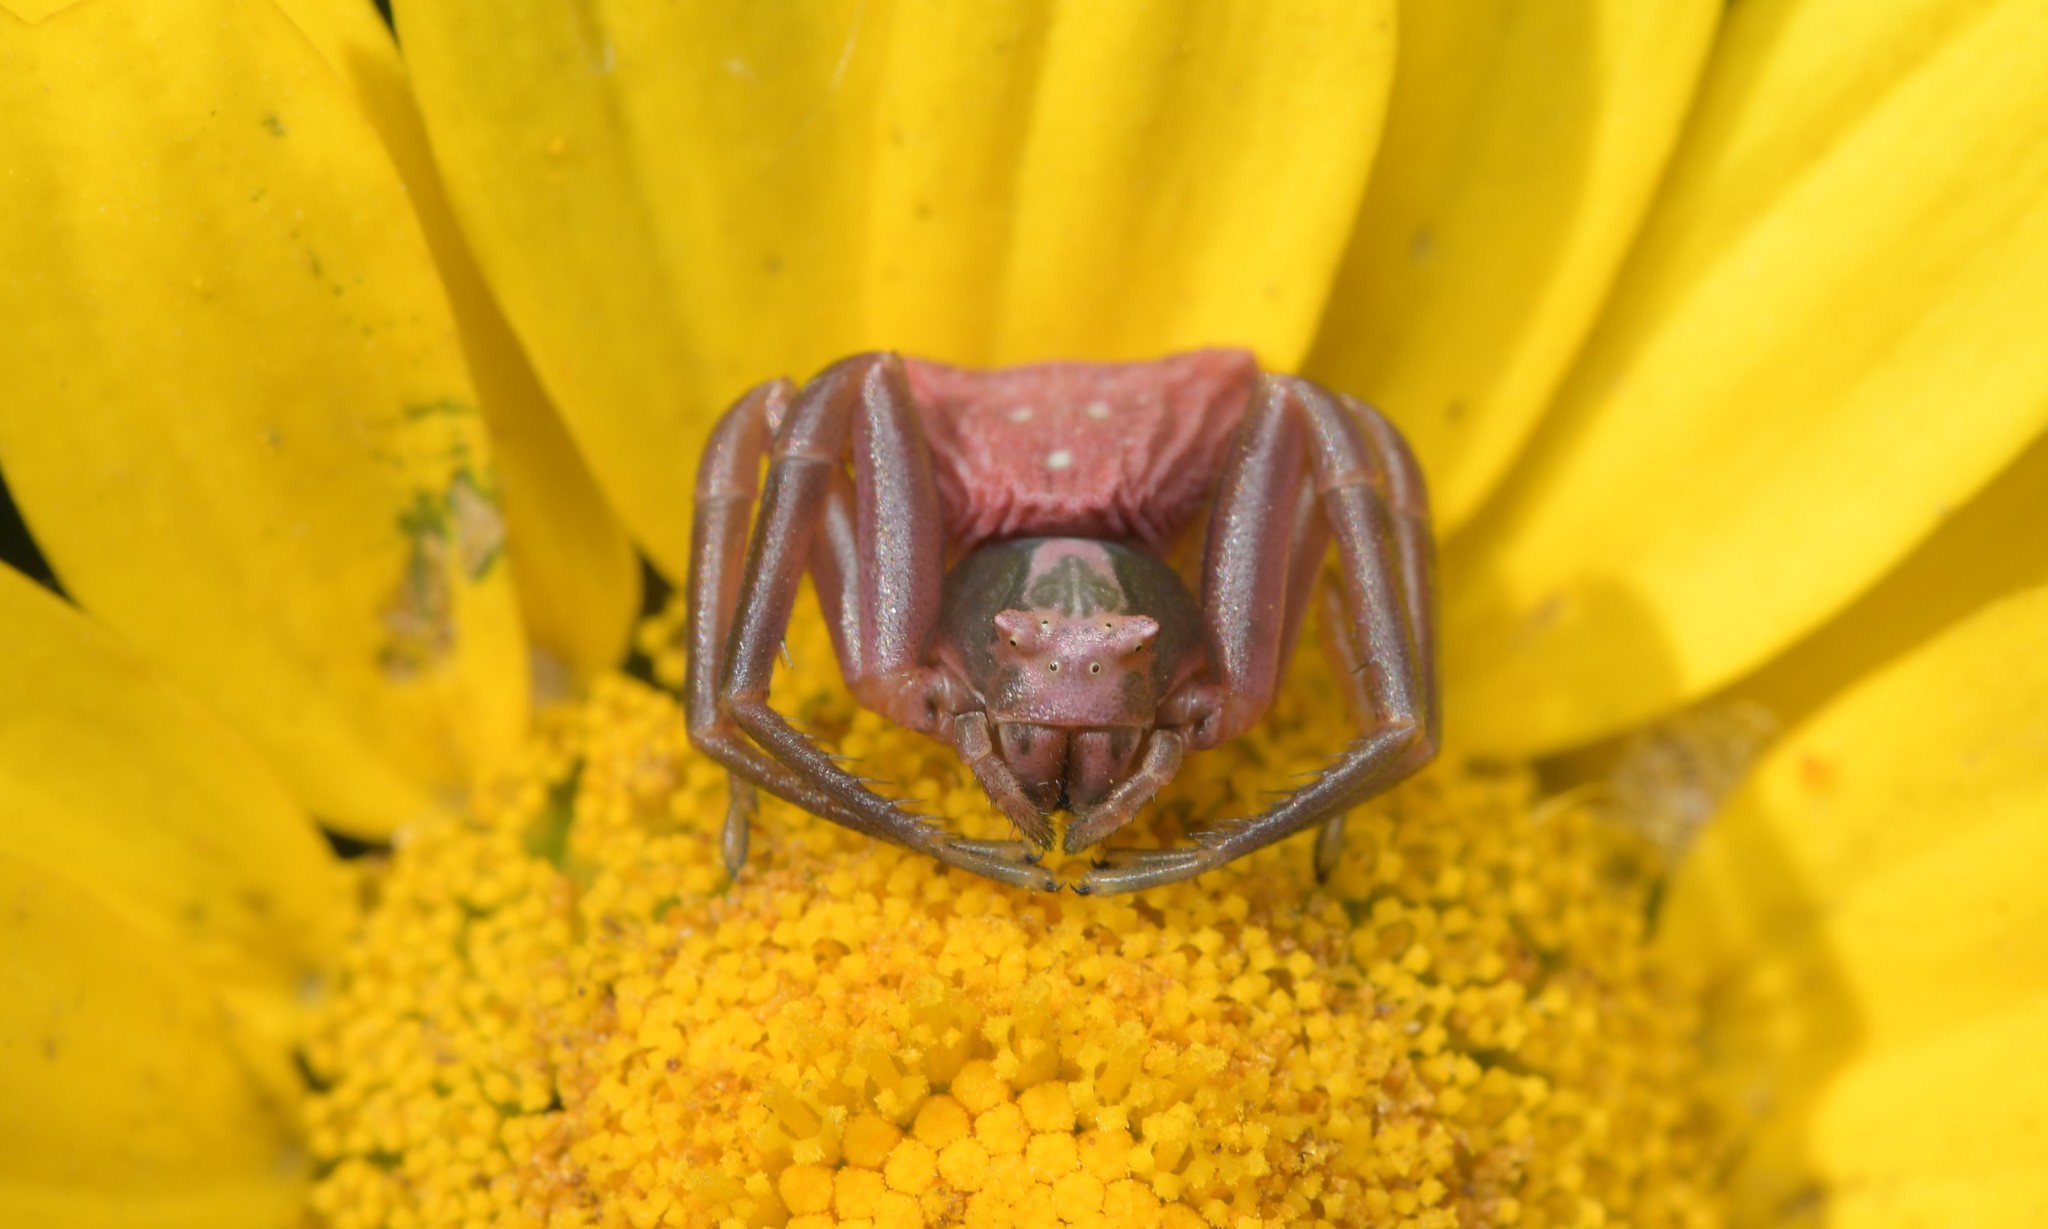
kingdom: Animalia
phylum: Arthropoda
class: Arachnida
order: Araneae
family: Thomisidae
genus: Thomisus
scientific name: Thomisus onustus
